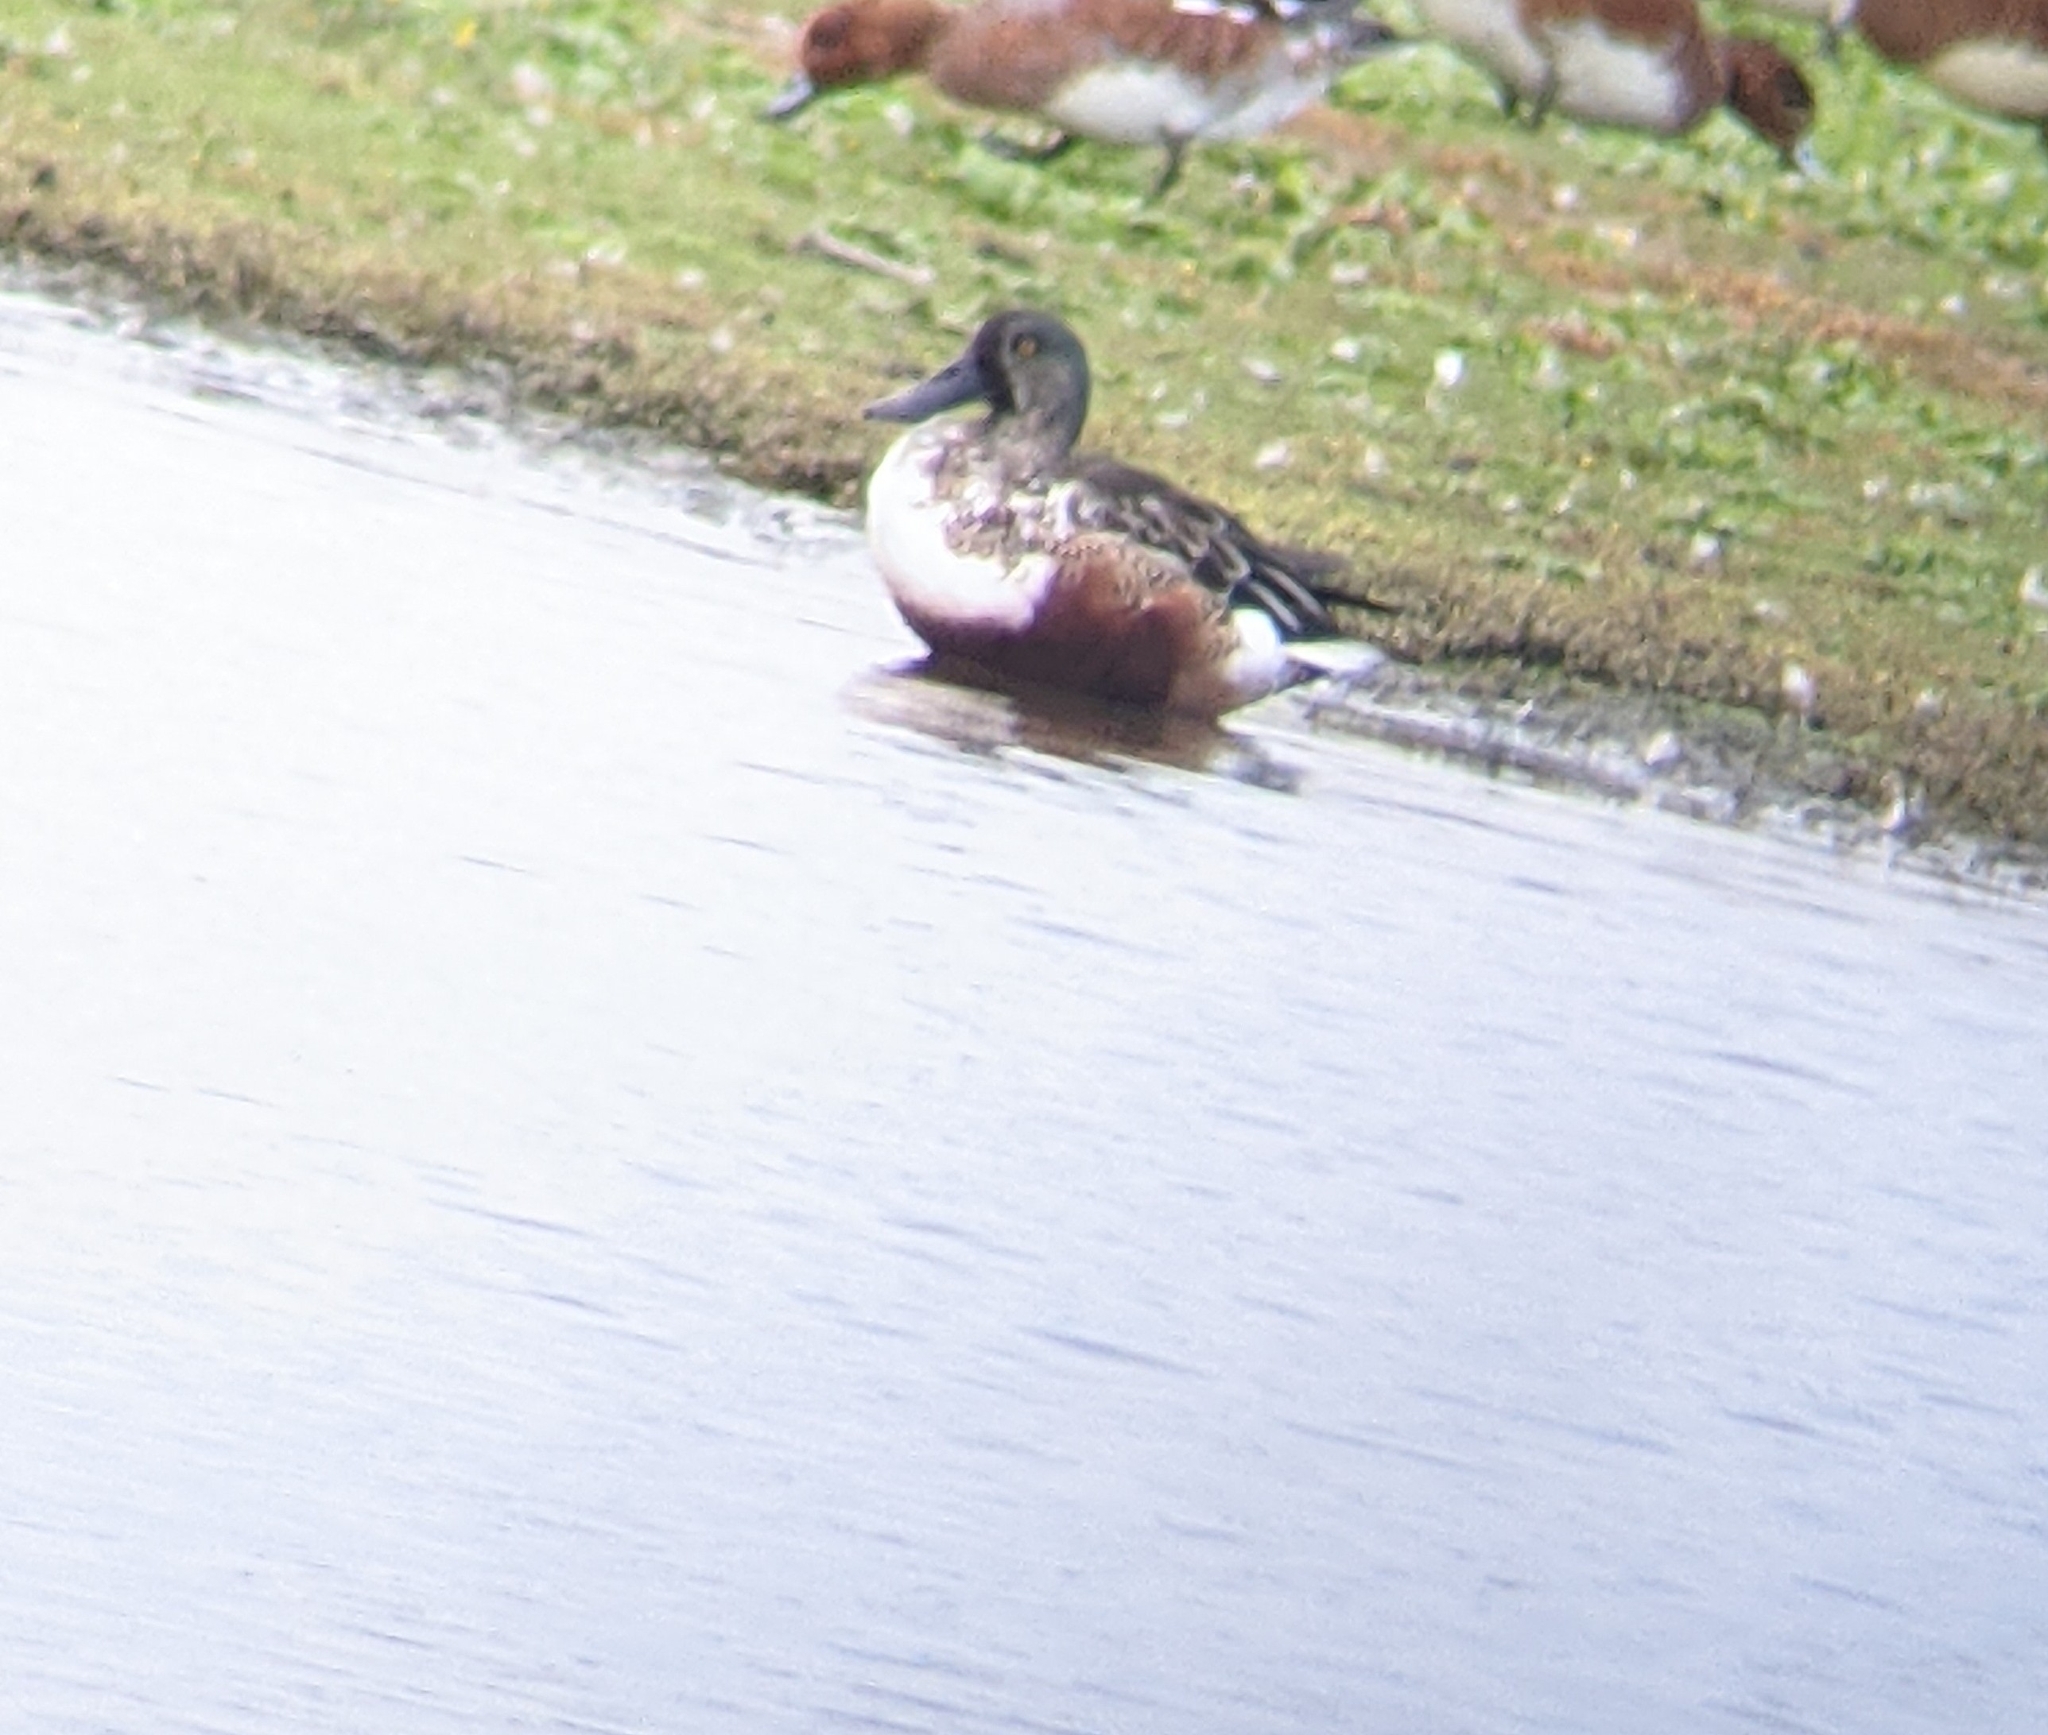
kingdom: Animalia
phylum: Chordata
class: Aves
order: Anseriformes
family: Anatidae
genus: Spatula
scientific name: Spatula clypeata
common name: Northern shoveler
